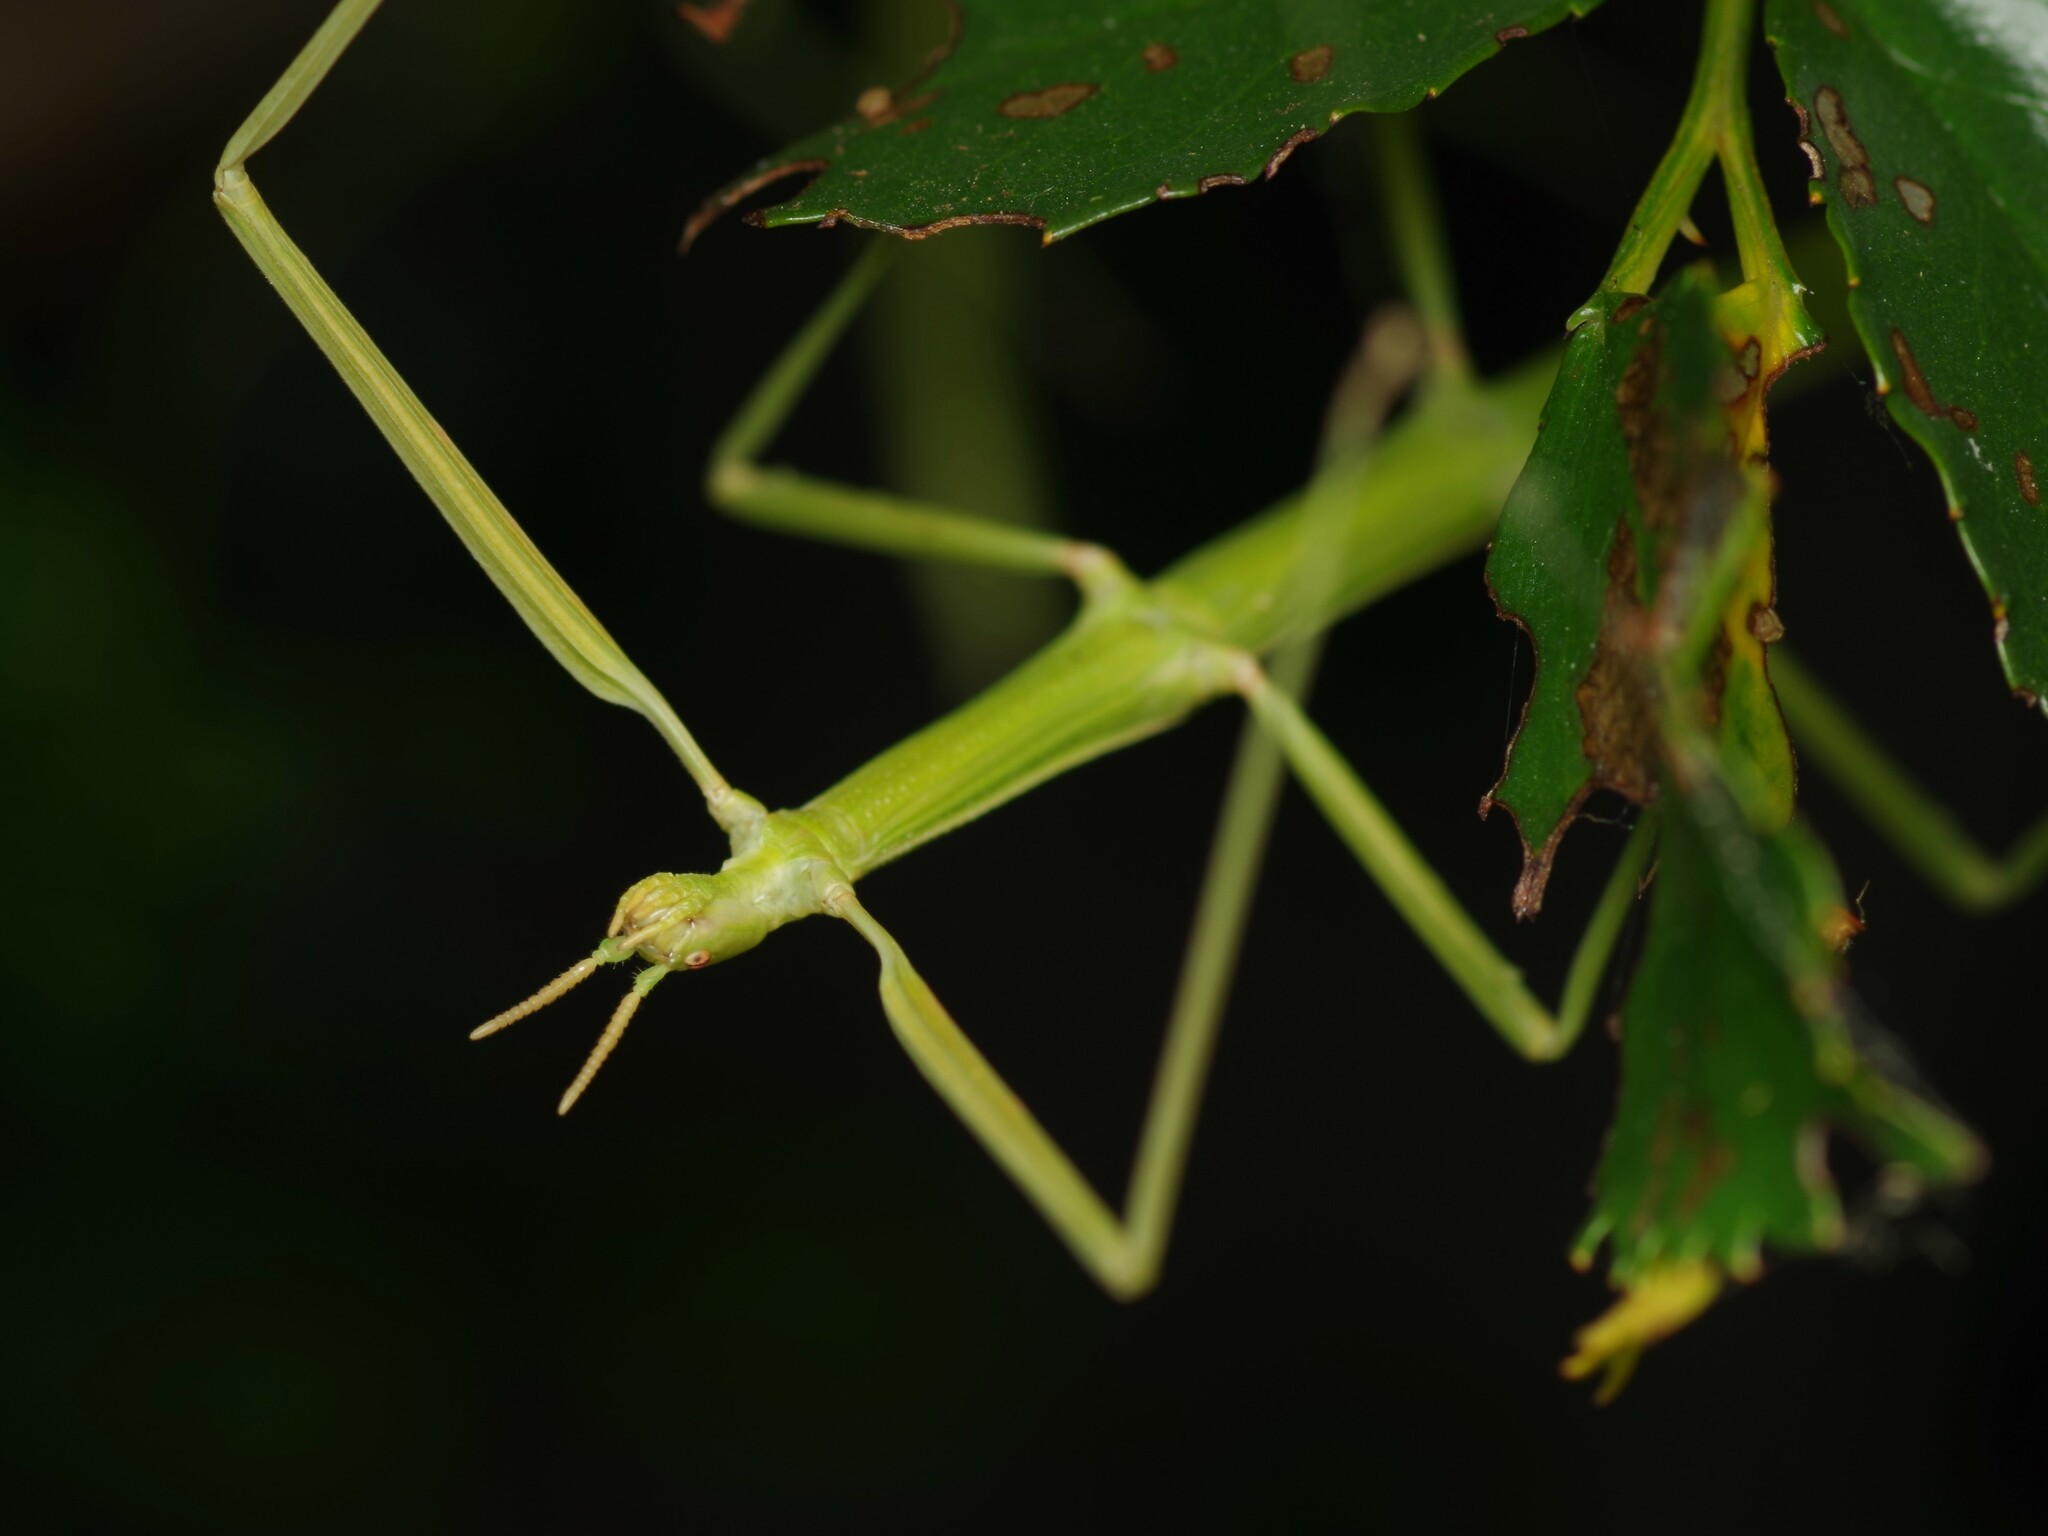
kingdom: Animalia
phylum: Arthropoda
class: Insecta
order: Phasmida
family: Bacillidae
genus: Clonopsis
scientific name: Clonopsis gallica
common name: French stick insect
